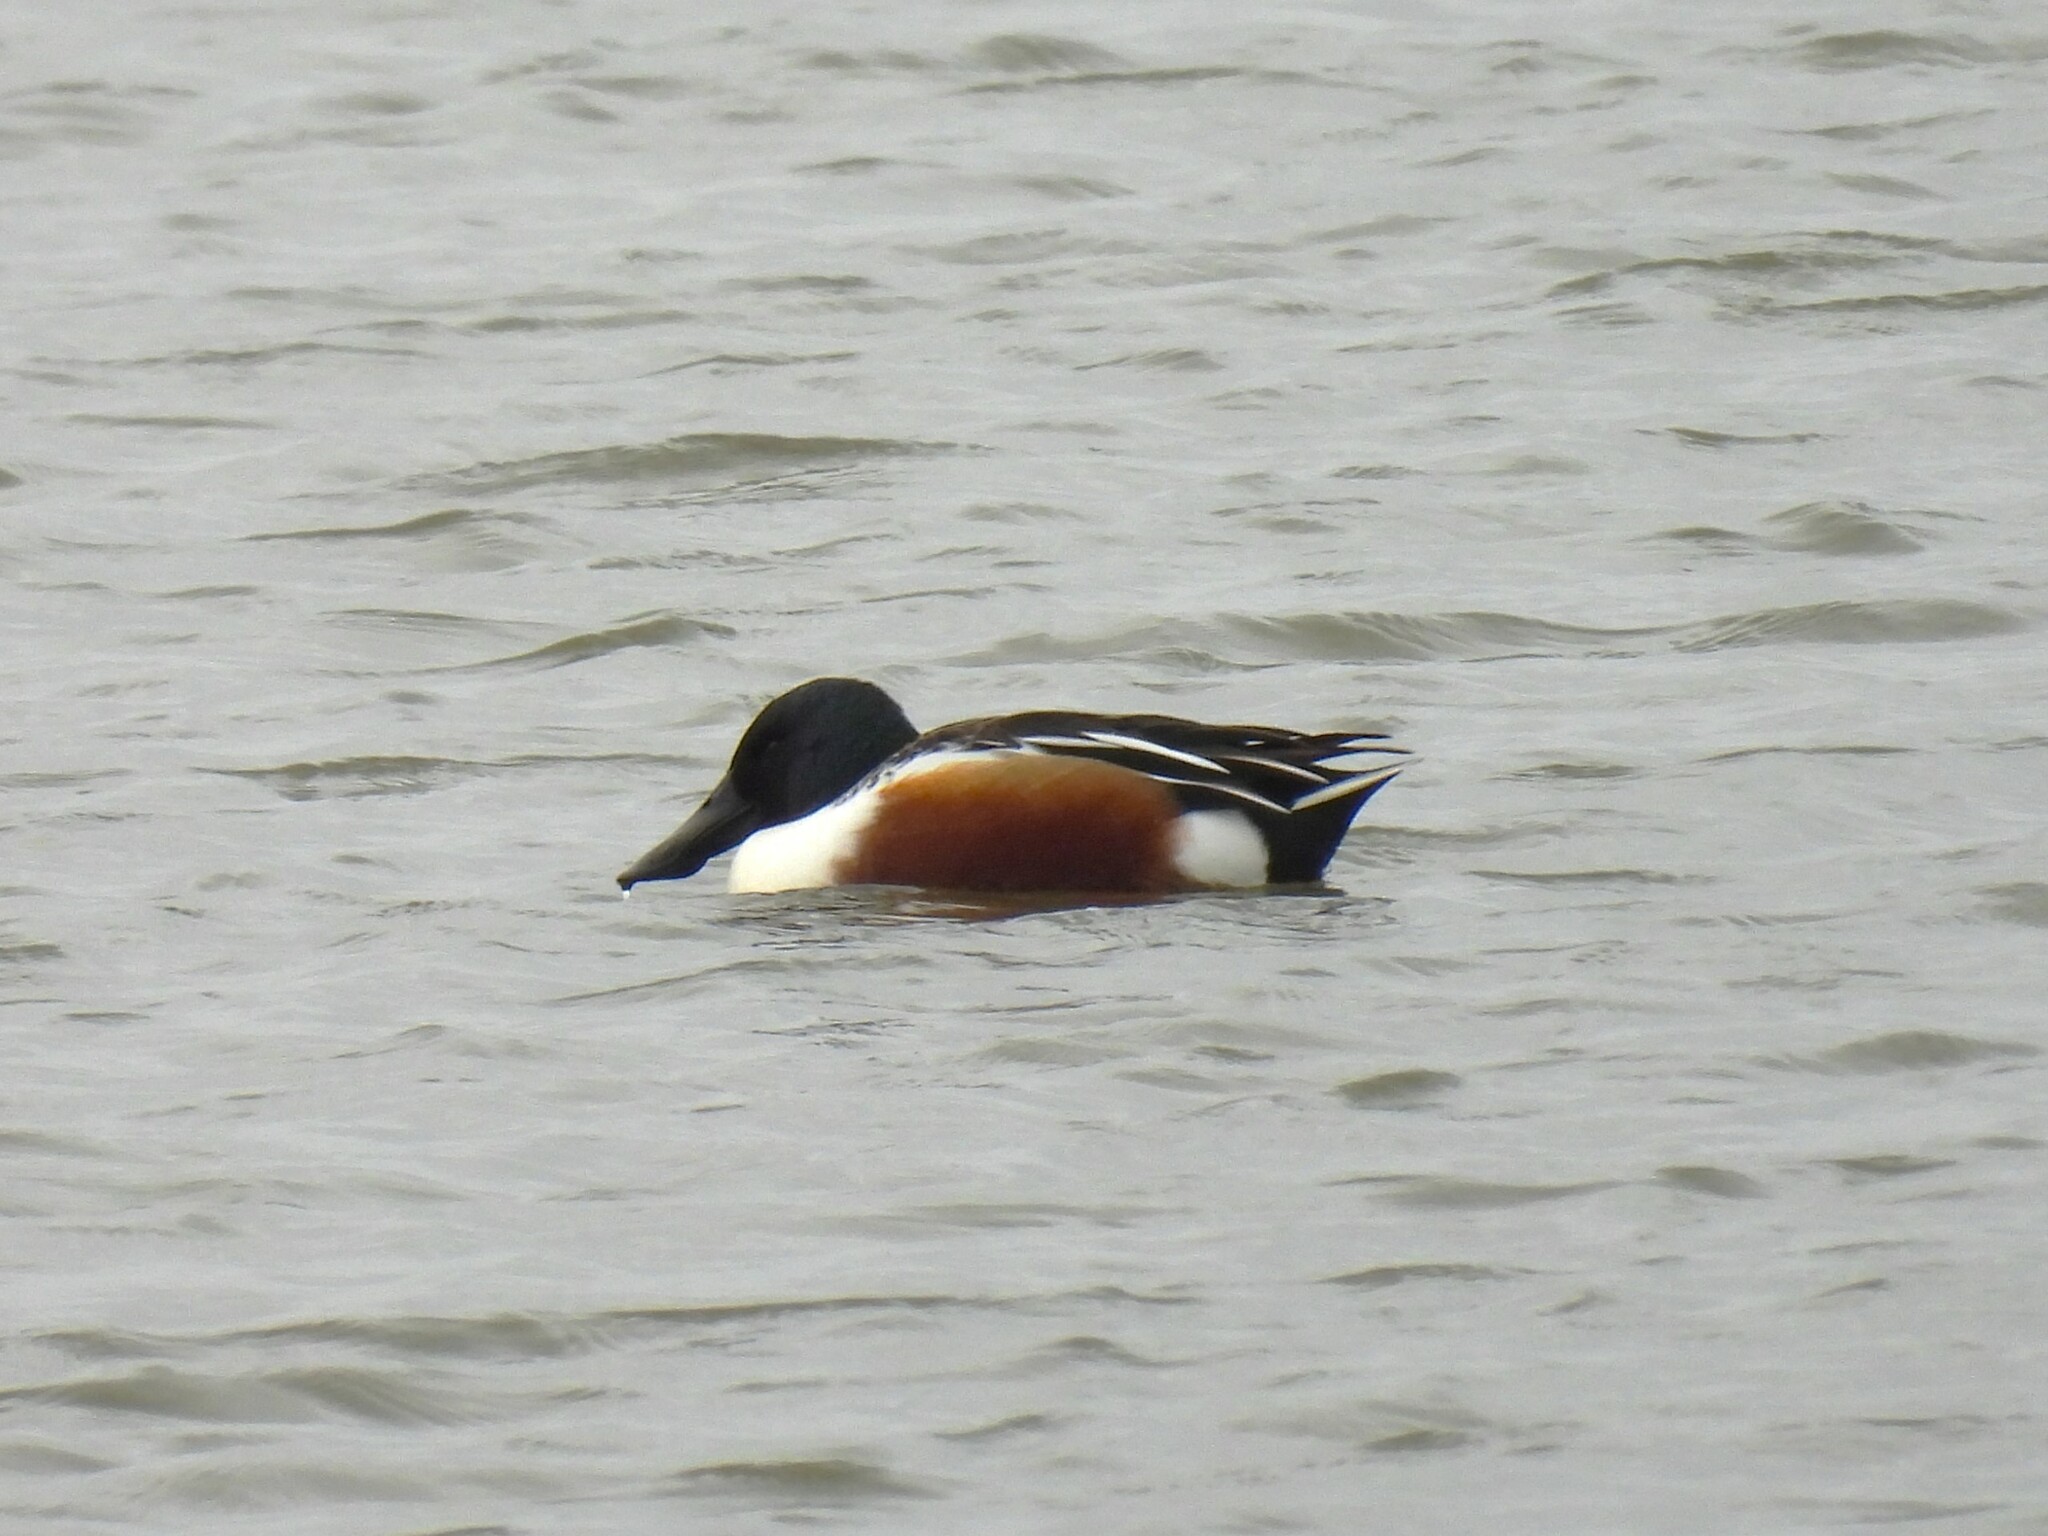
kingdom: Animalia
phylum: Chordata
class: Aves
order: Anseriformes
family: Anatidae
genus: Spatula
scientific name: Spatula clypeata
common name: Northern shoveler
